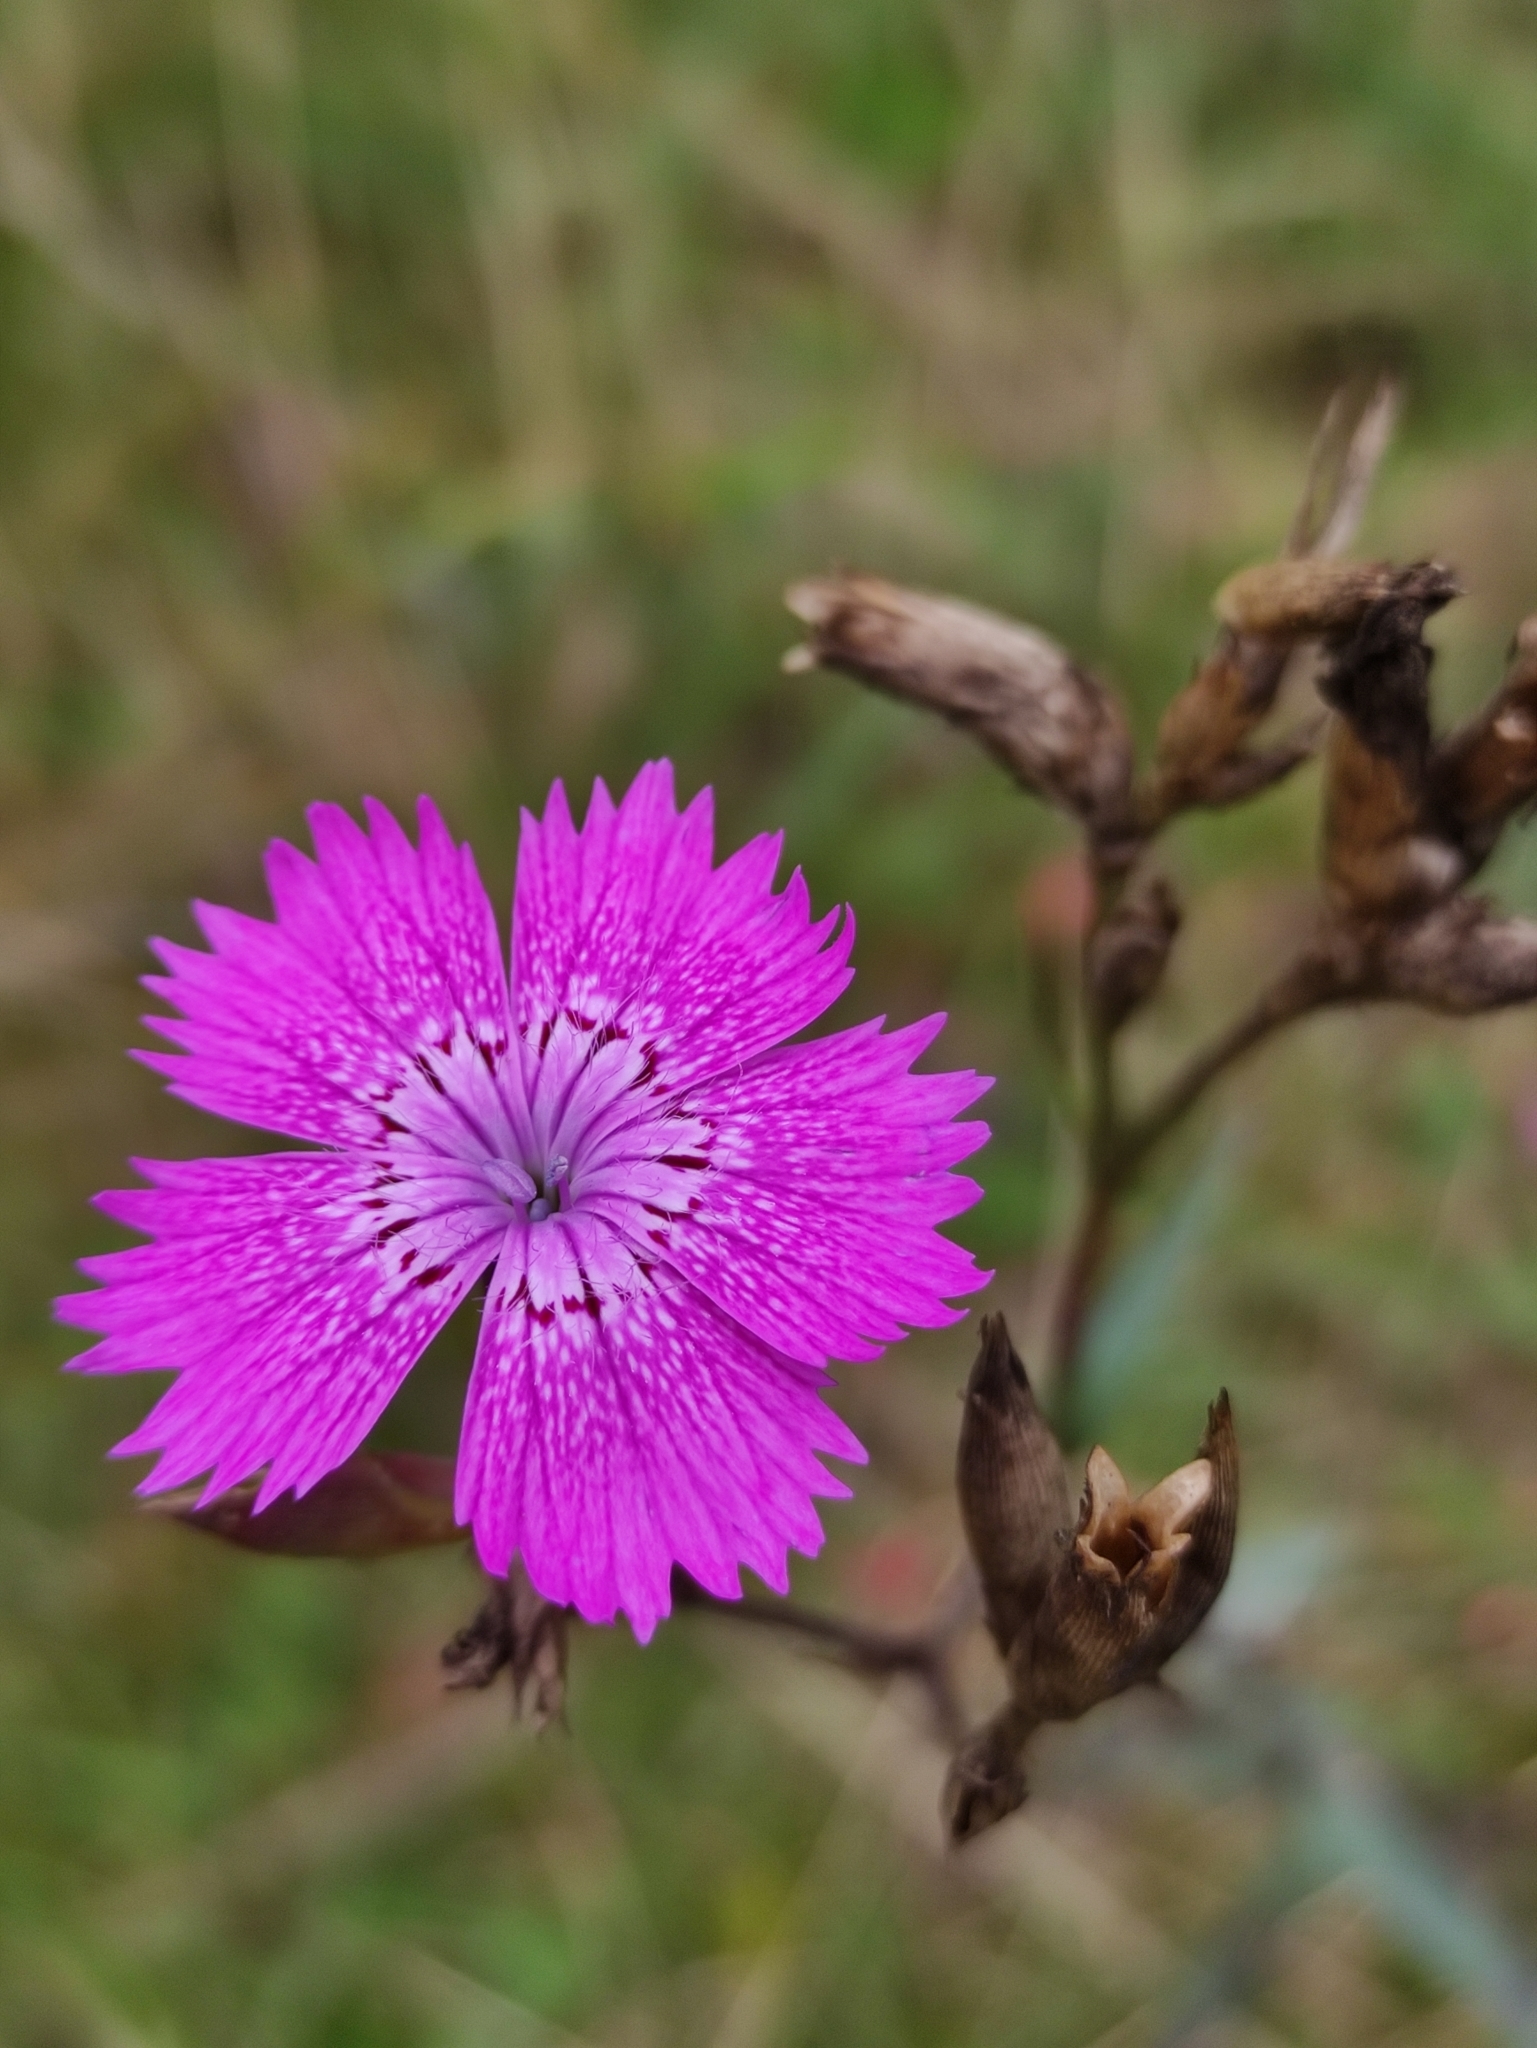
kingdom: Plantae
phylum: Tracheophyta
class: Magnoliopsida
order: Caryophyllales
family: Caryophyllaceae
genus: Dianthus
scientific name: Dianthus chinensis
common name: Rainbow pink
